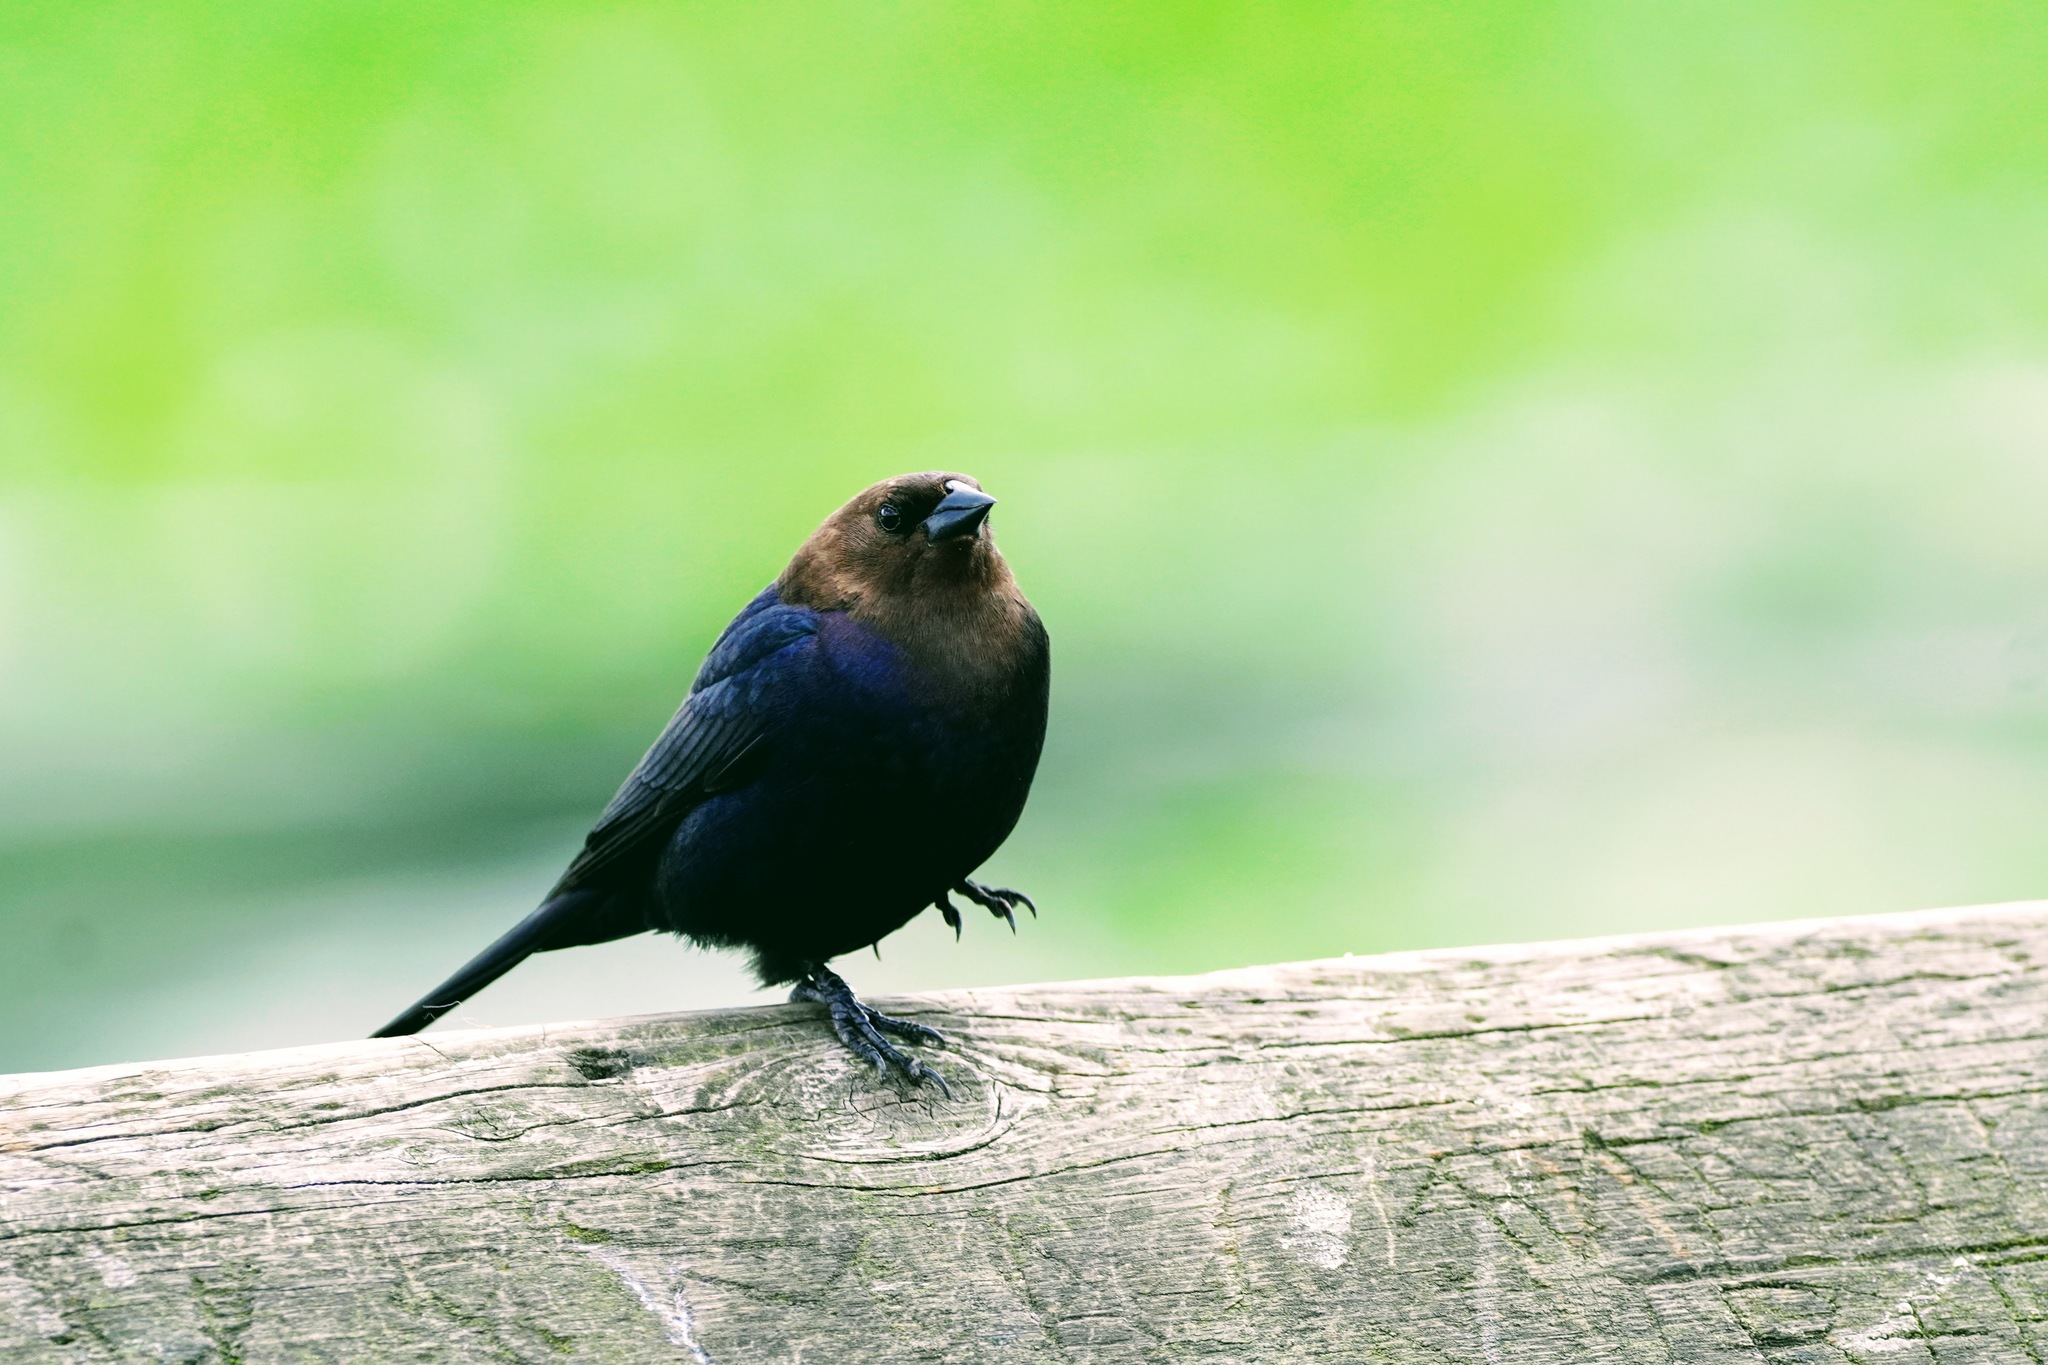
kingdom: Animalia
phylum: Chordata
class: Aves
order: Passeriformes
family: Icteridae
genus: Molothrus
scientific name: Molothrus ater
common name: Brown-headed cowbird
